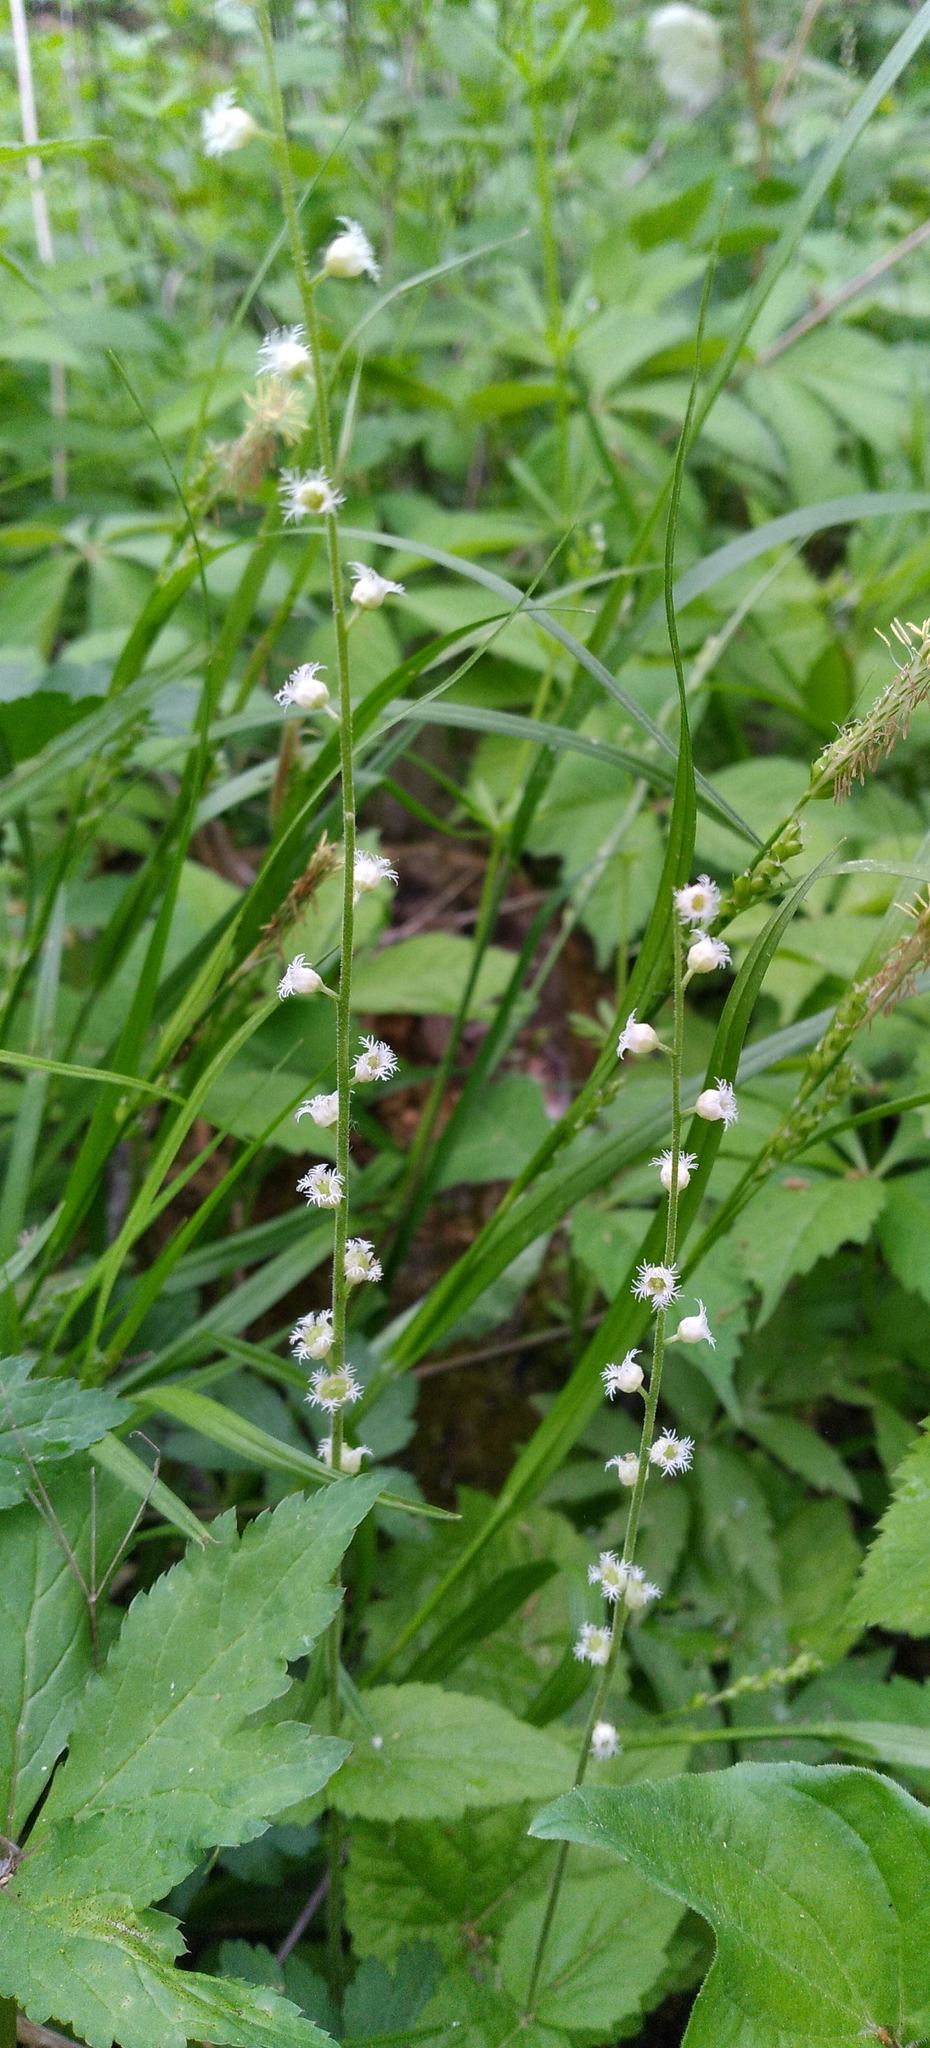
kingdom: Plantae
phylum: Tracheophyta
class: Magnoliopsida
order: Saxifragales
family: Saxifragaceae
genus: Mitella
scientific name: Mitella diphylla
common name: Coolwort
